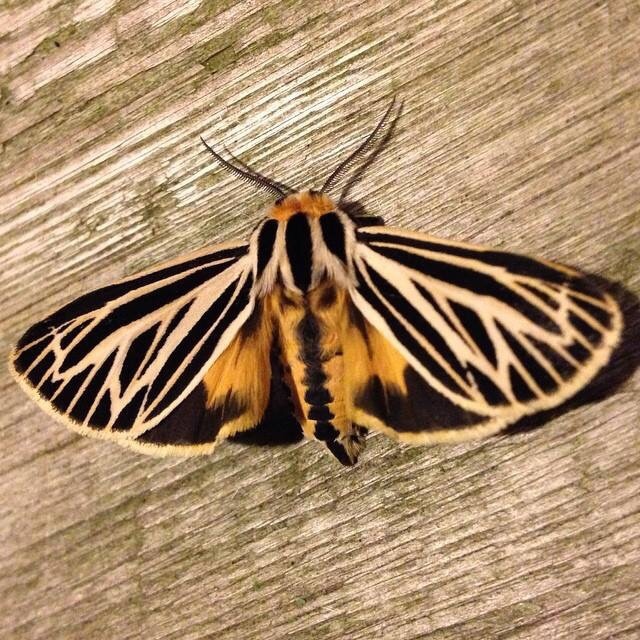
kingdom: Animalia
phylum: Arthropoda
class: Insecta
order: Lepidoptera
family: Erebidae
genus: Grammia
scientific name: Grammia virguncula
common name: Little tiger moth
